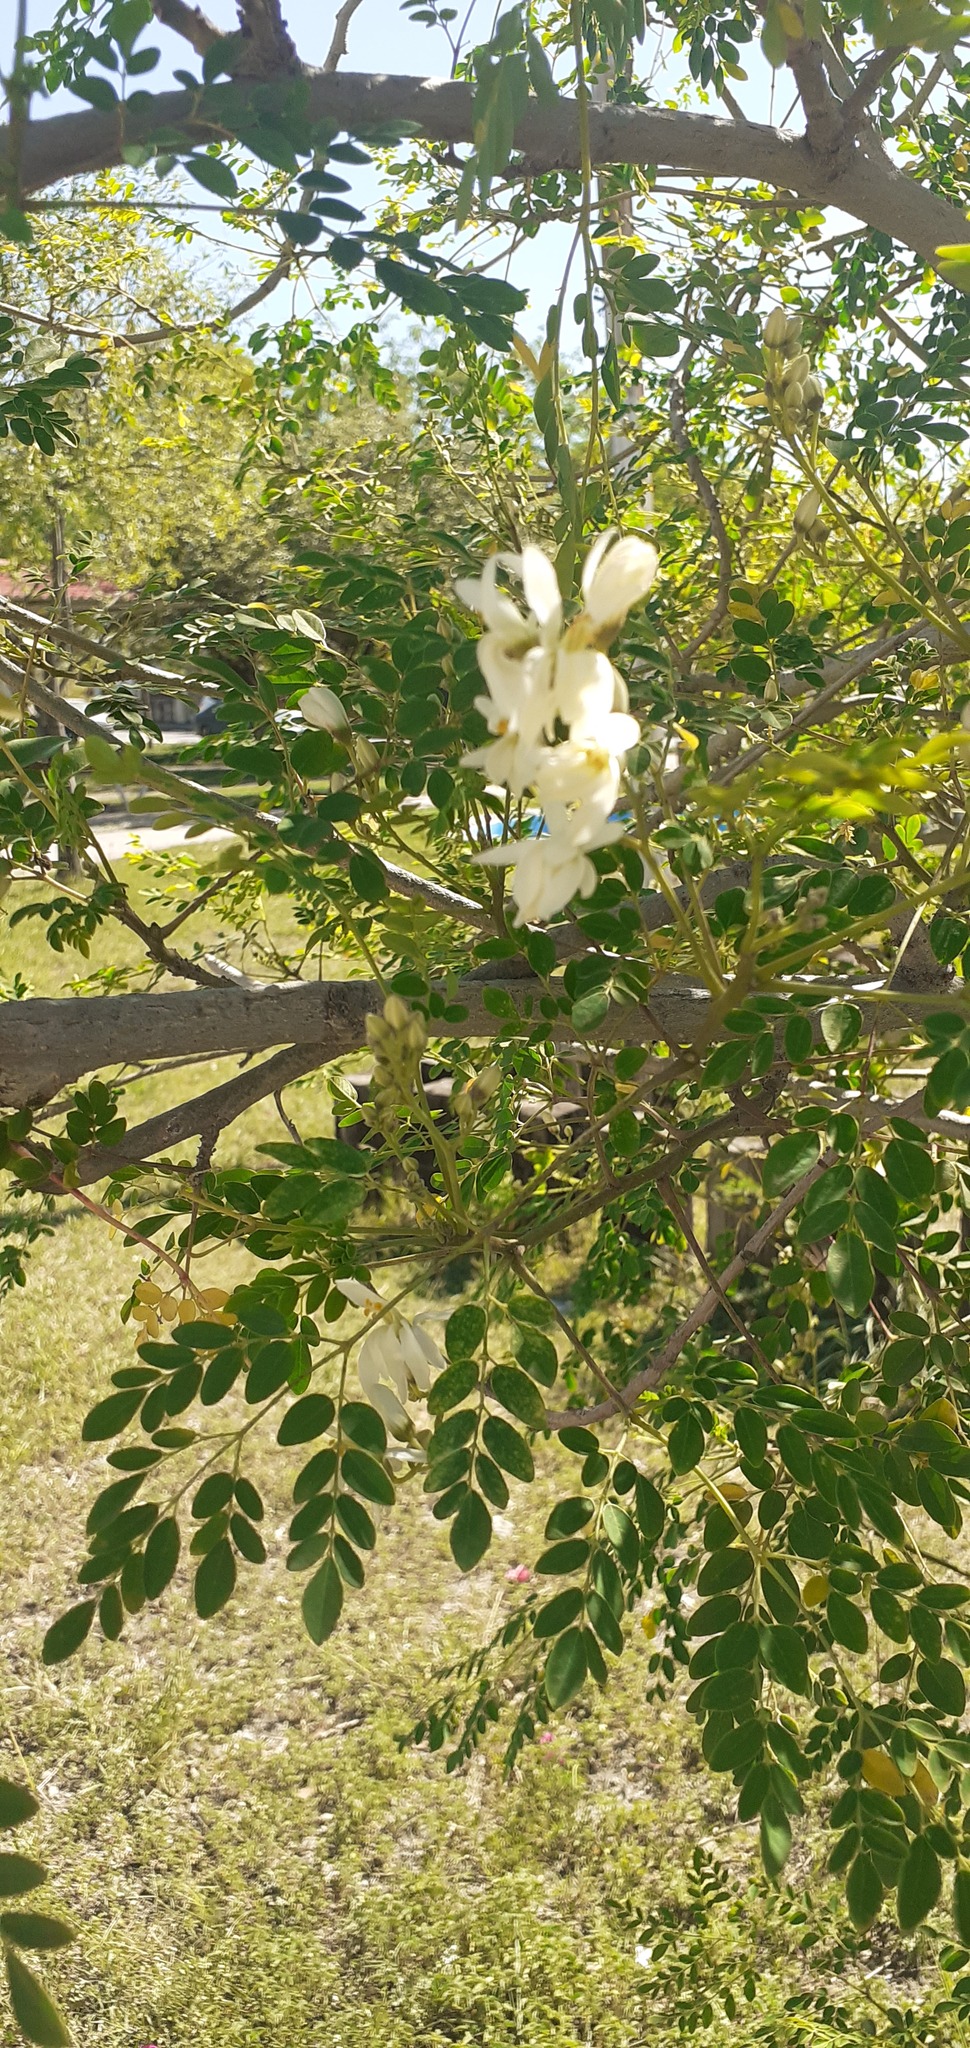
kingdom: Plantae
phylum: Tracheophyta
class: Magnoliopsida
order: Brassicales
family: Moringaceae
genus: Moringa
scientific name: Moringa oleifera
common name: Horseradish-tree
